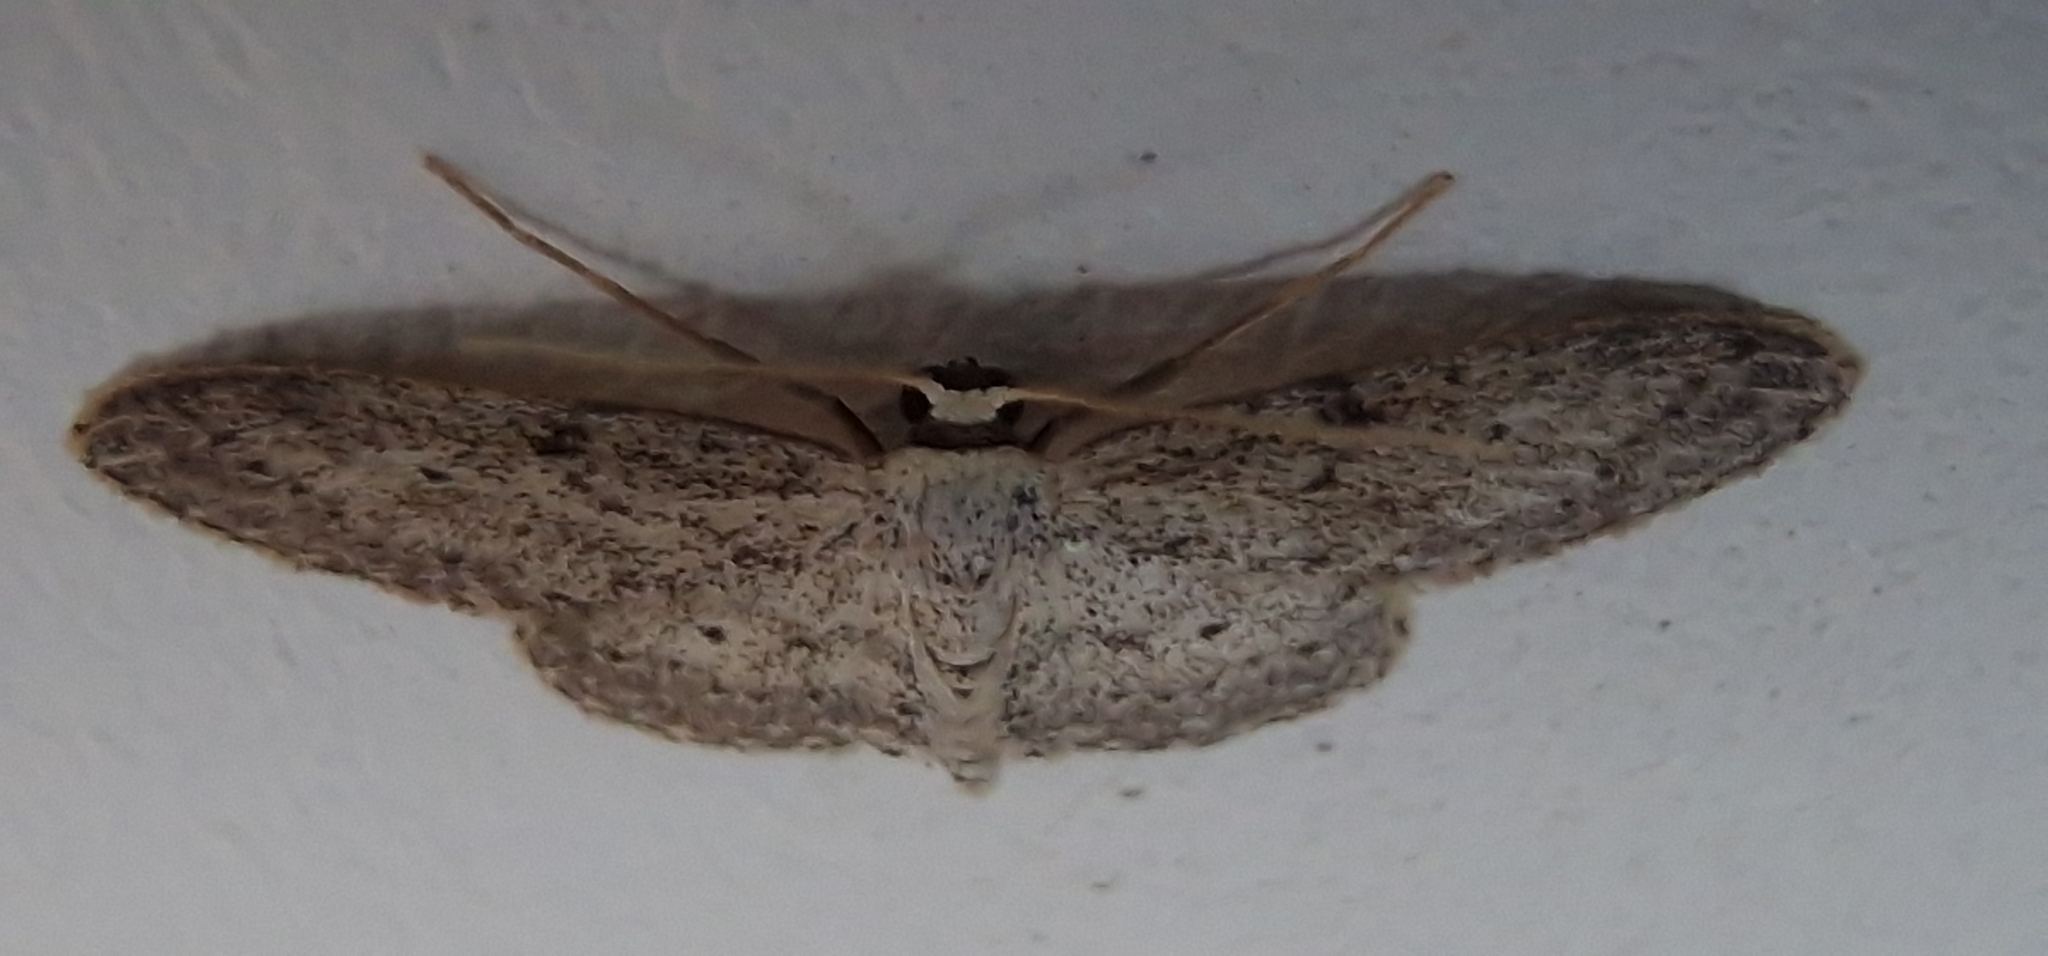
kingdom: Animalia
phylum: Arthropoda
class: Insecta
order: Lepidoptera
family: Geometridae
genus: Idaea
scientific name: Idaea seriata
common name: Small dusty wave
